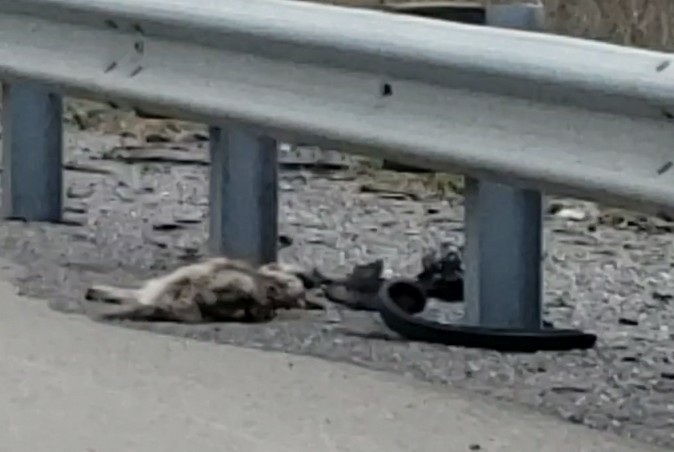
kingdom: Animalia
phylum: Chordata
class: Mammalia
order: Carnivora
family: Canidae
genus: Canis
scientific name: Canis latrans
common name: Coyote
